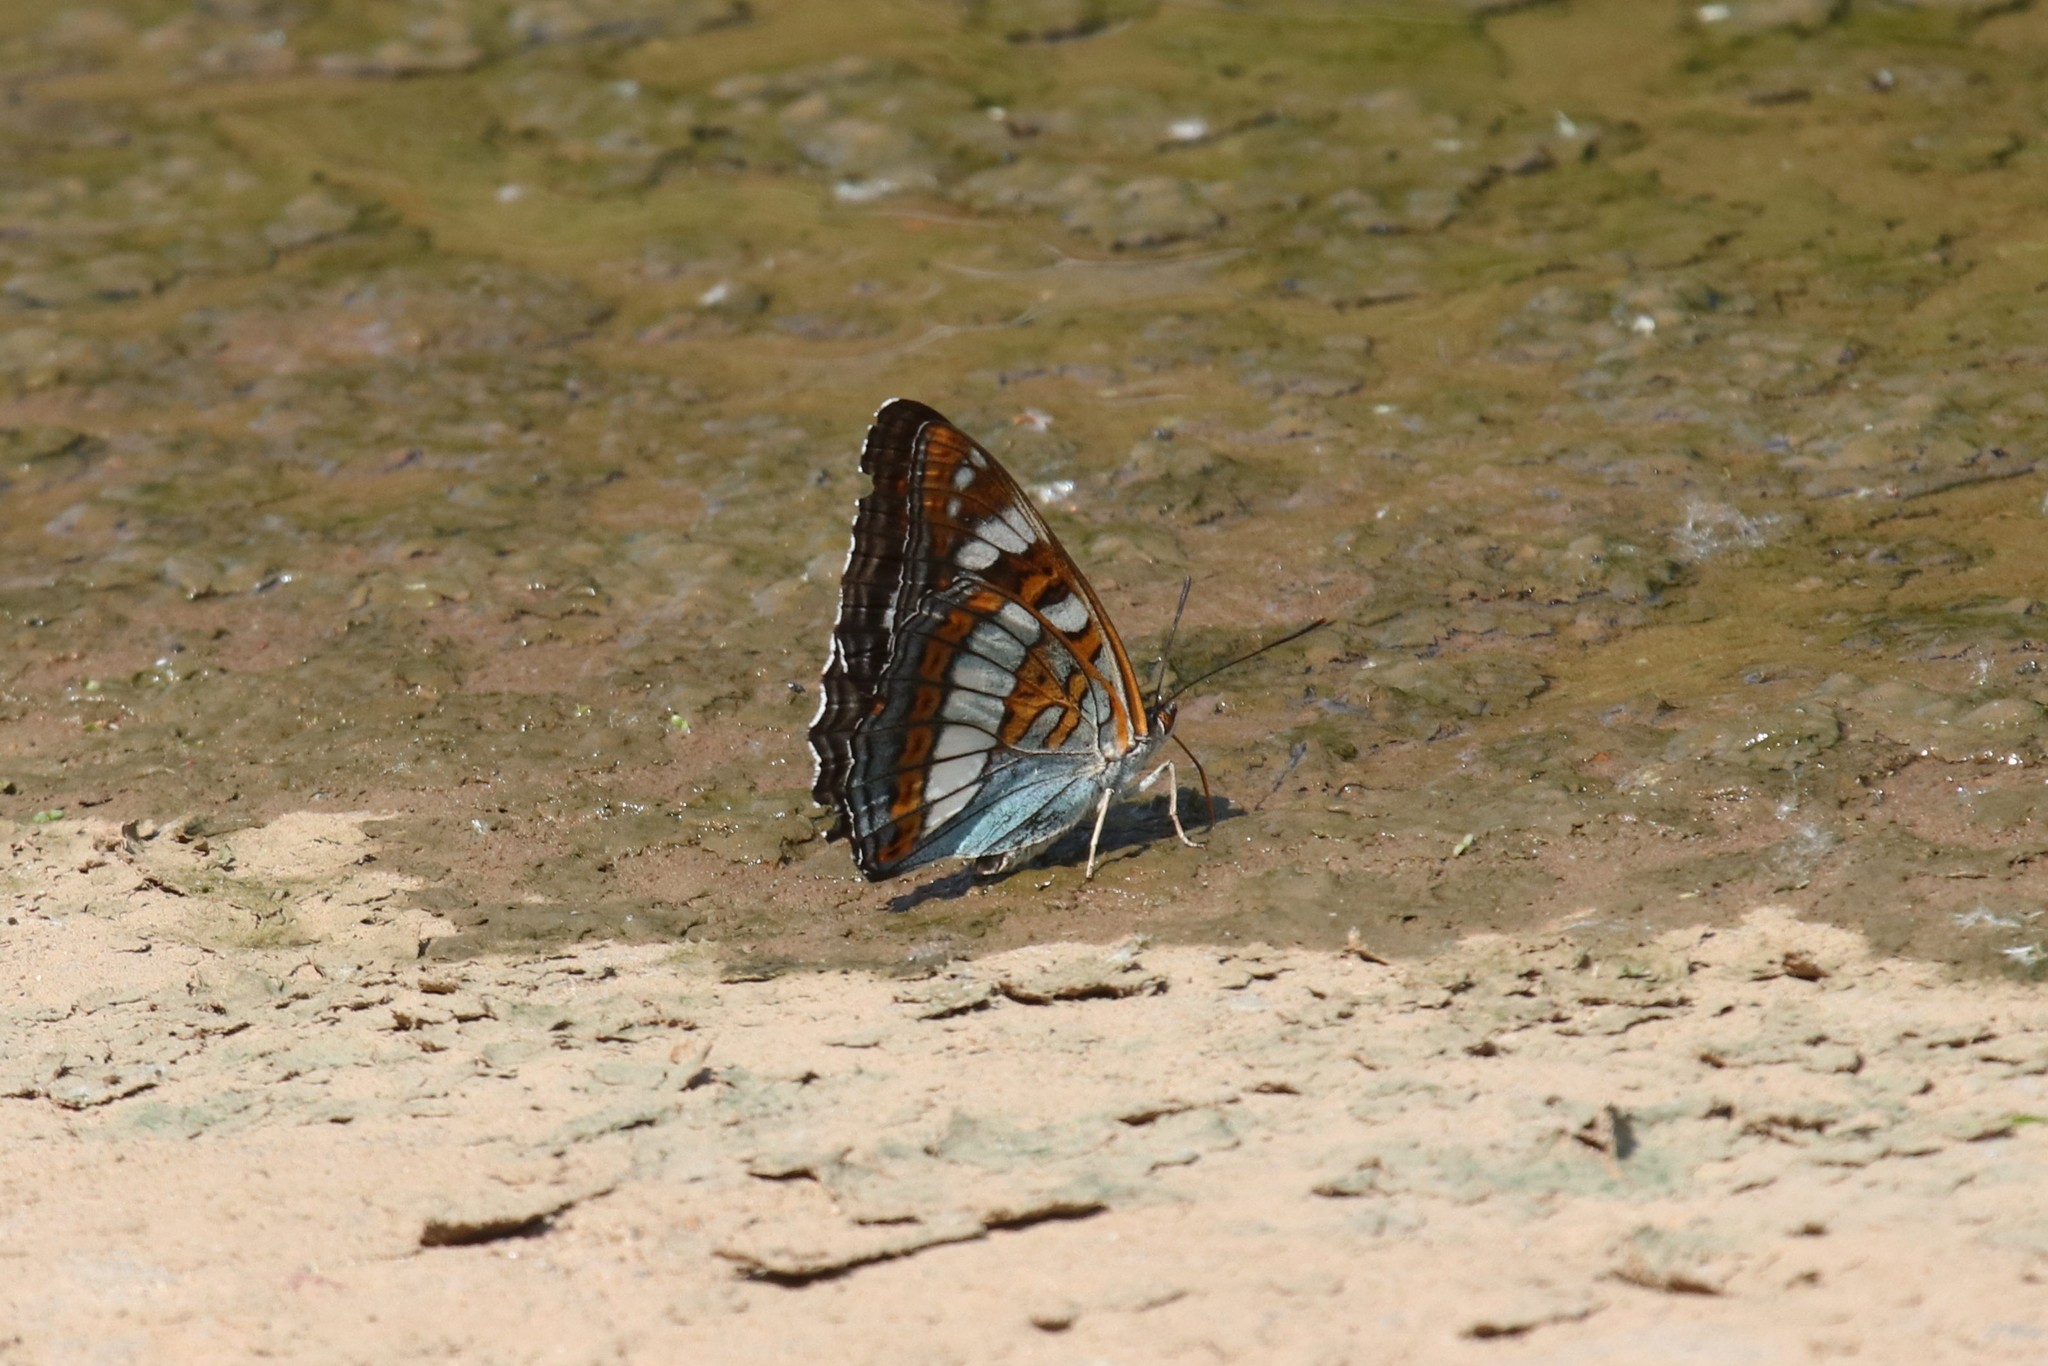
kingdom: Animalia
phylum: Arthropoda
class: Insecta
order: Lepidoptera
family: Nymphalidae
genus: Limenitis
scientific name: Limenitis populi
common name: Poplar admiral
